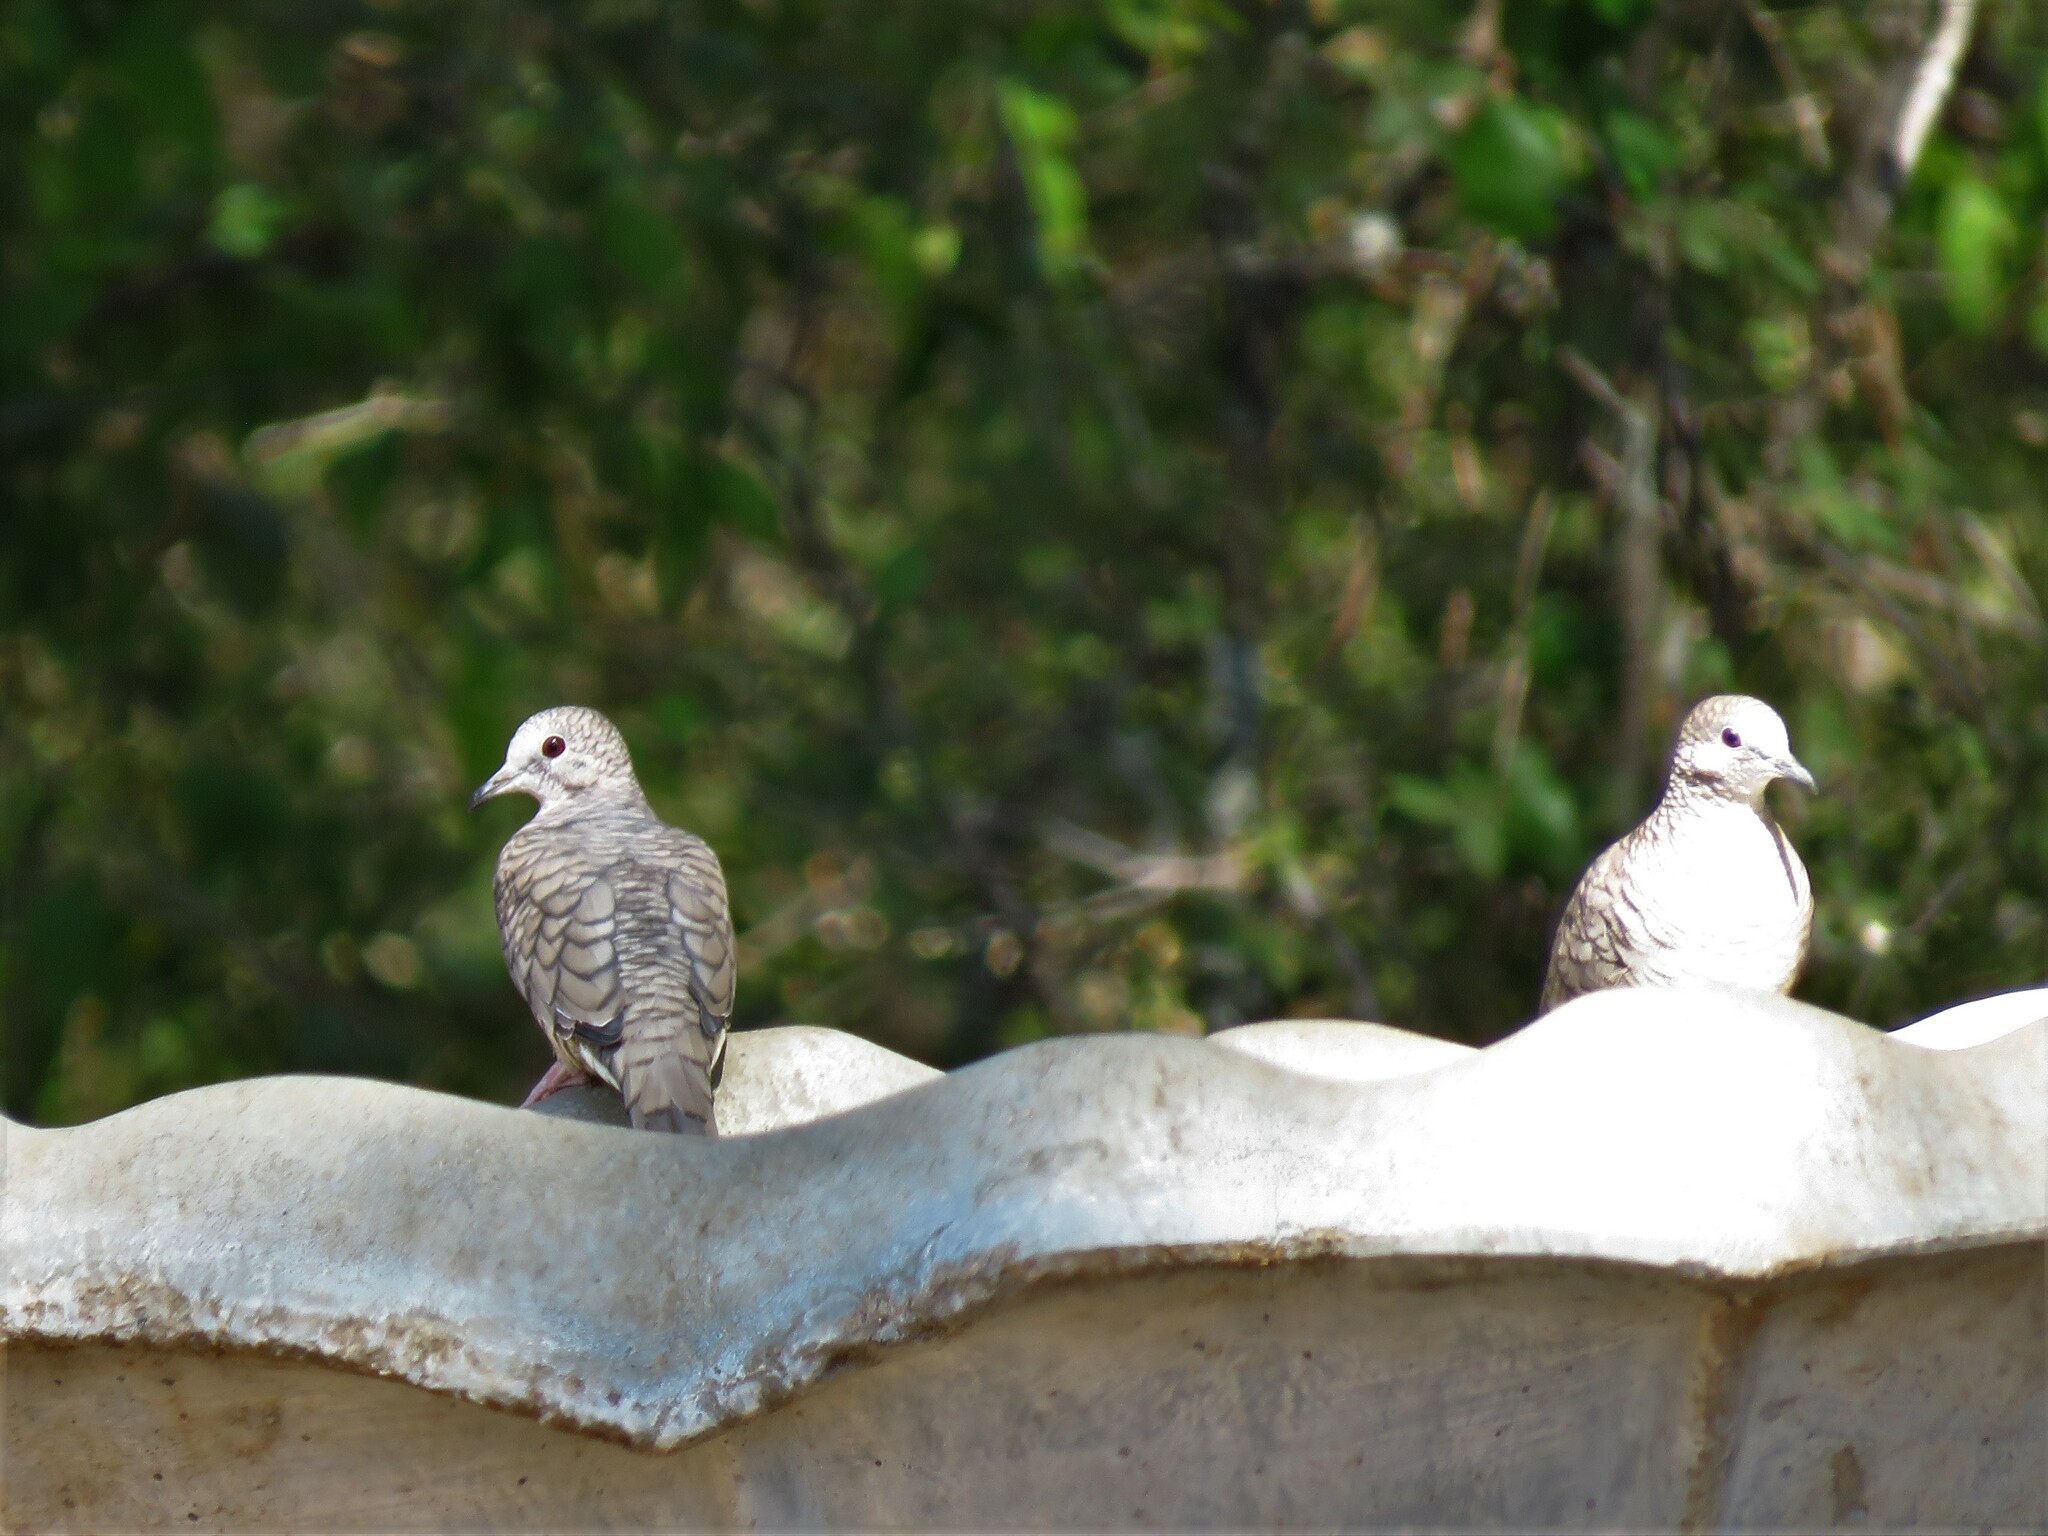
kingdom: Animalia
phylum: Chordata
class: Aves
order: Columbiformes
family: Columbidae
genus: Columbina
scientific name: Columbina inca
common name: Inca dove
